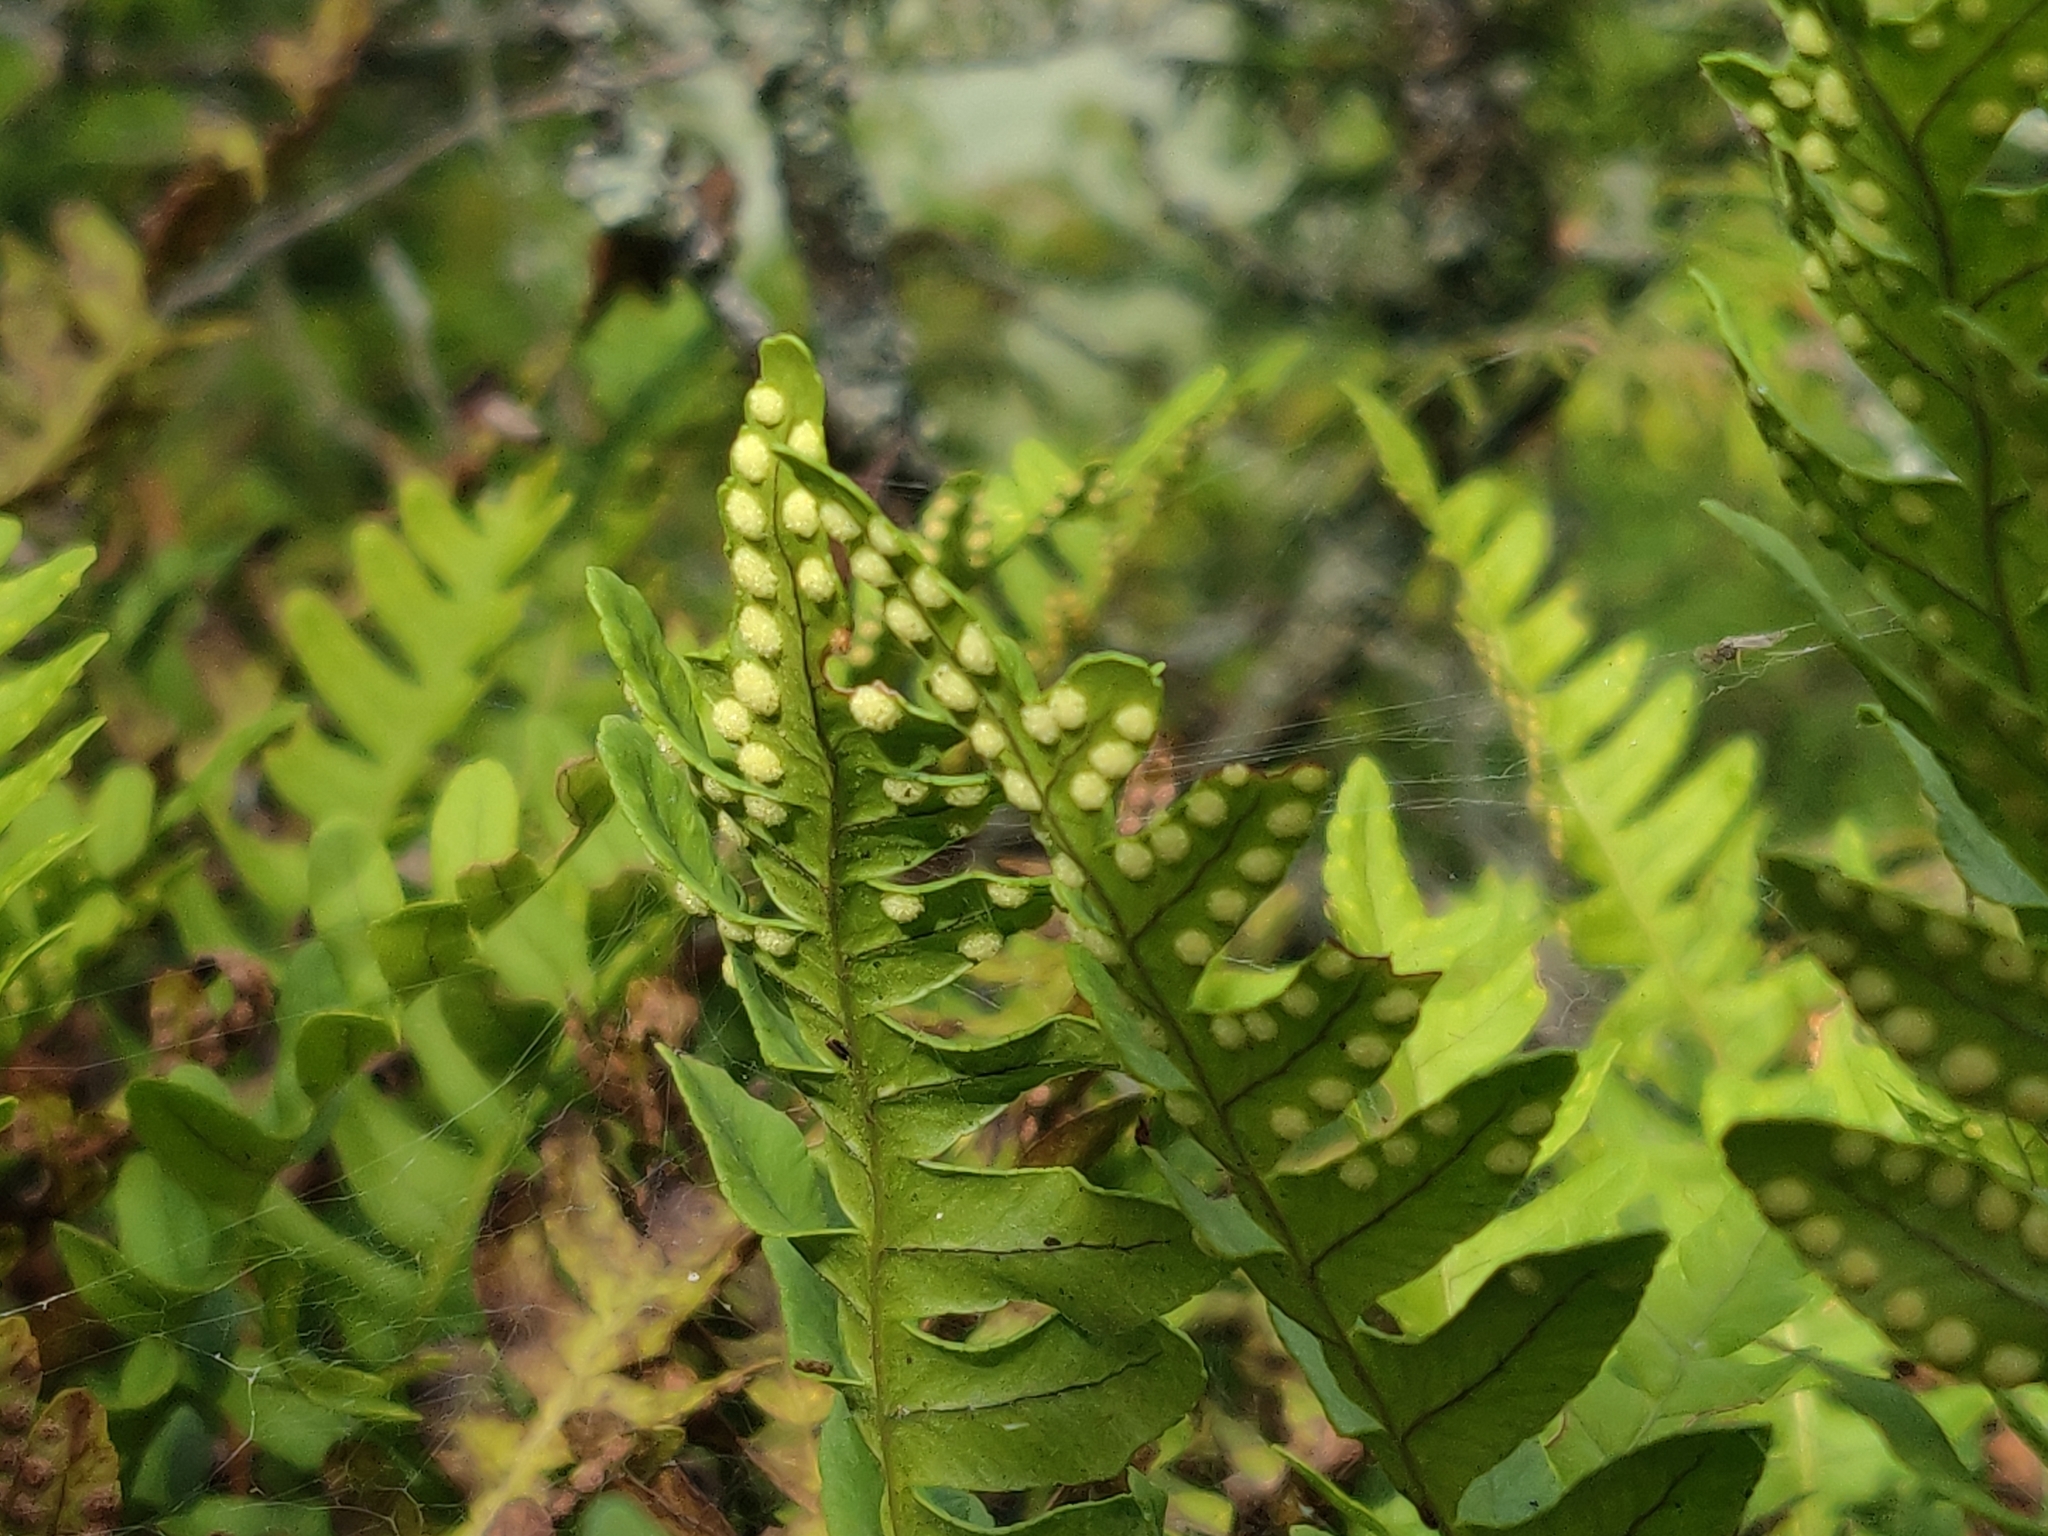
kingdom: Plantae
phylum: Tracheophyta
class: Polypodiopsida
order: Polypodiales
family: Polypodiaceae
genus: Polypodium
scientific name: Polypodium virginianum
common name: American wall fern
